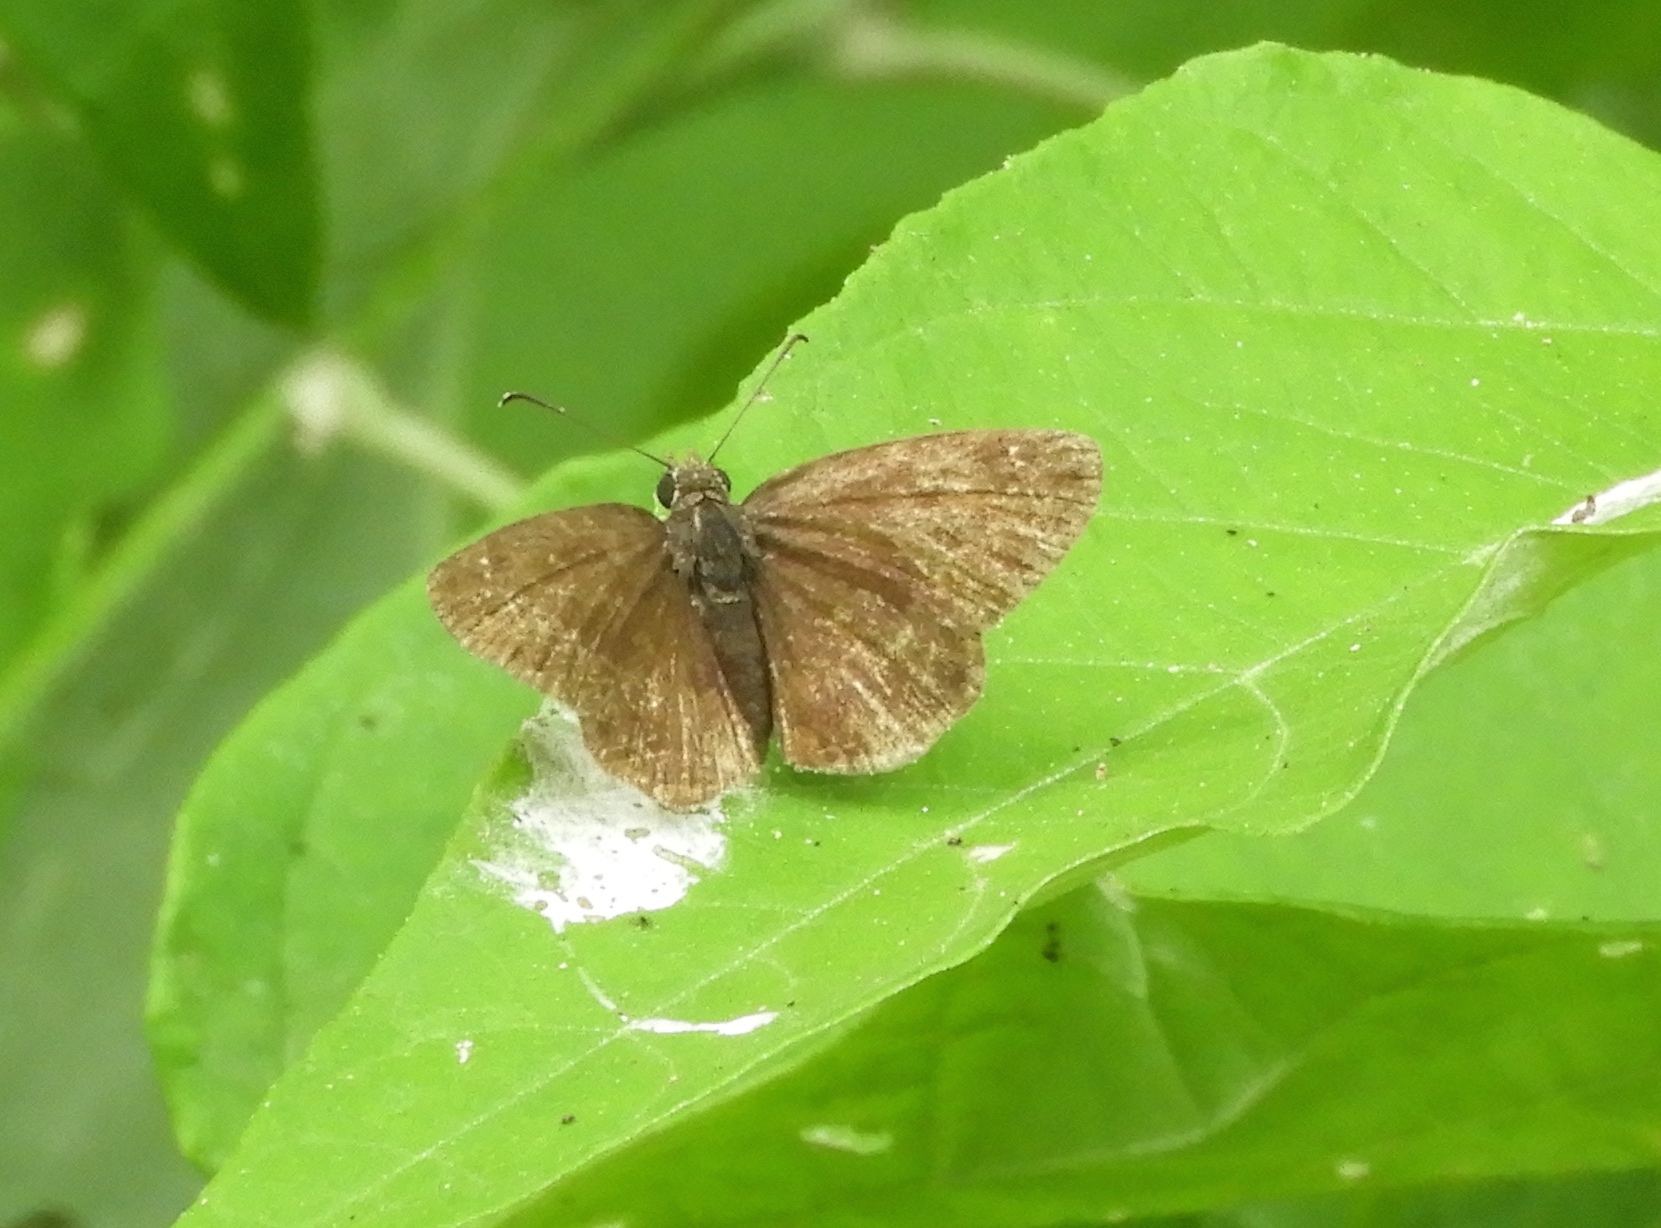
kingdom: Animalia
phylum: Arthropoda
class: Insecta
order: Lepidoptera
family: Hesperiidae
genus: Zopyrion
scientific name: Zopyrion sandace
